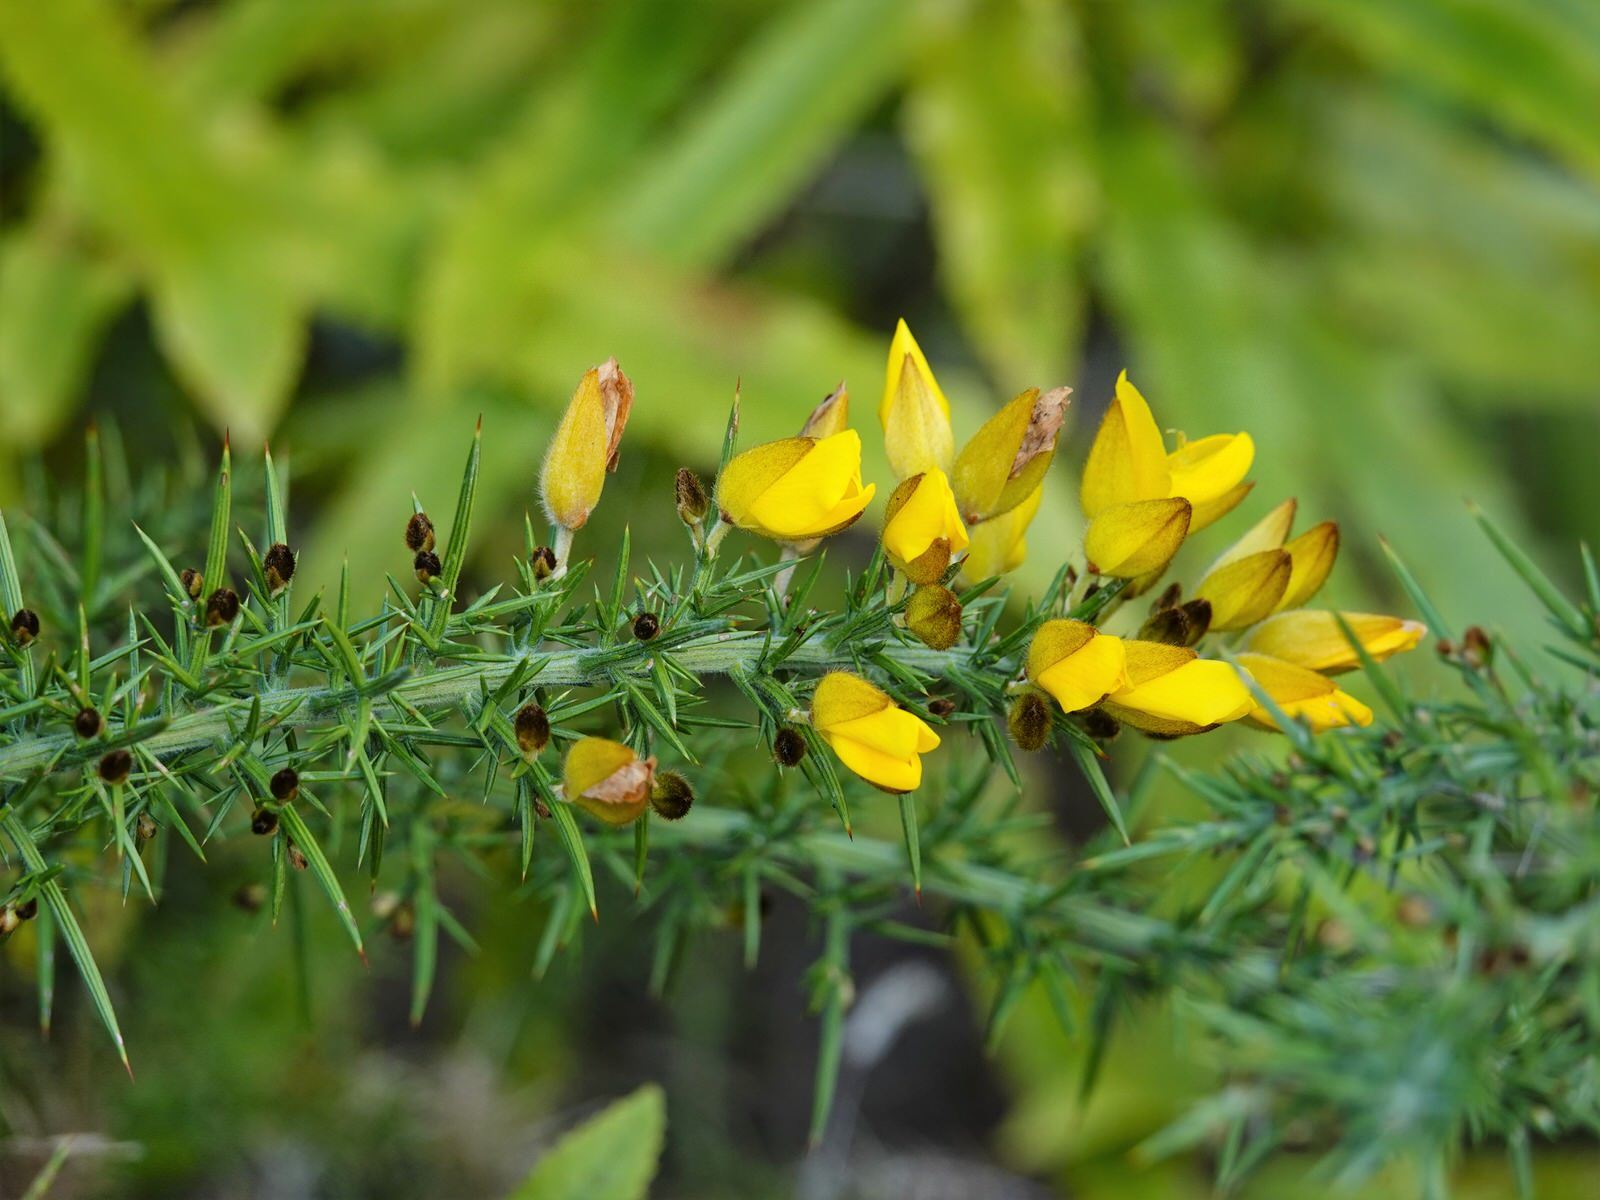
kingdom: Plantae
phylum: Tracheophyta
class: Magnoliopsida
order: Fabales
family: Fabaceae
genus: Ulex
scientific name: Ulex europaeus
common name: Common gorse
